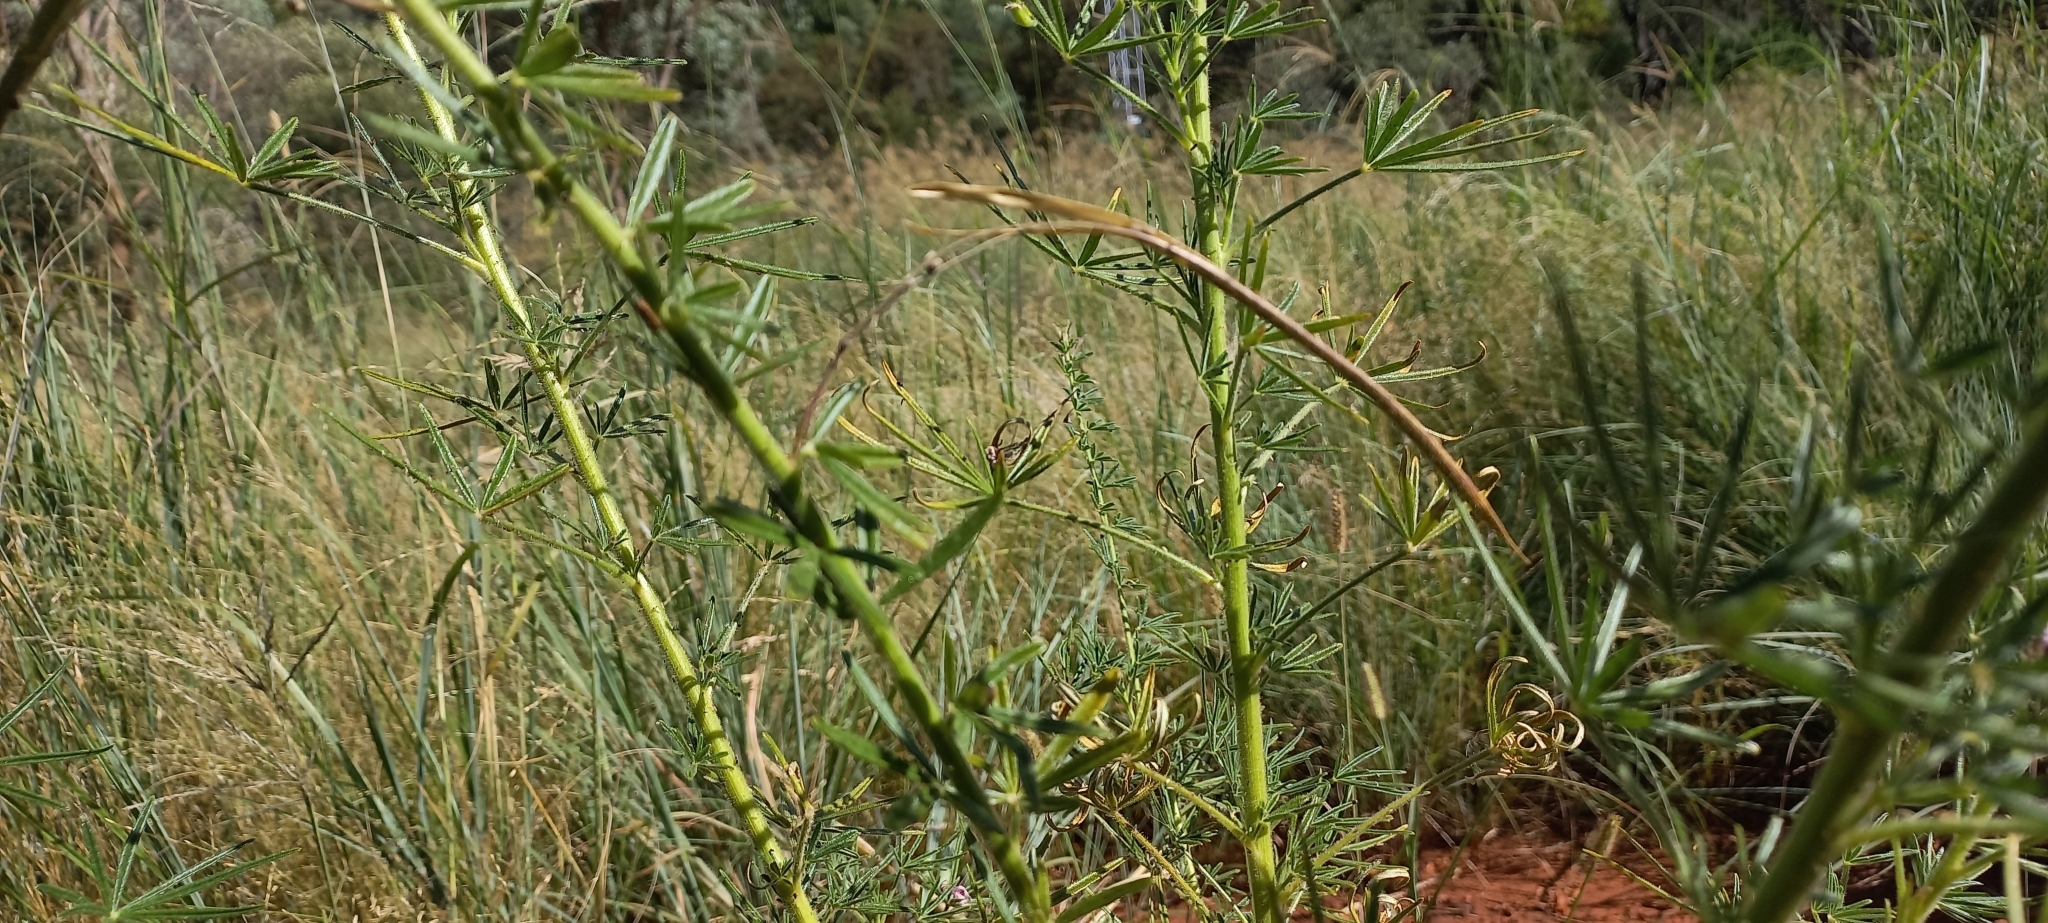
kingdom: Plantae
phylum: Tracheophyta
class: Magnoliopsida
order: Brassicales
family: Cleomaceae
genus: Sieruela
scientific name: Sieruela
